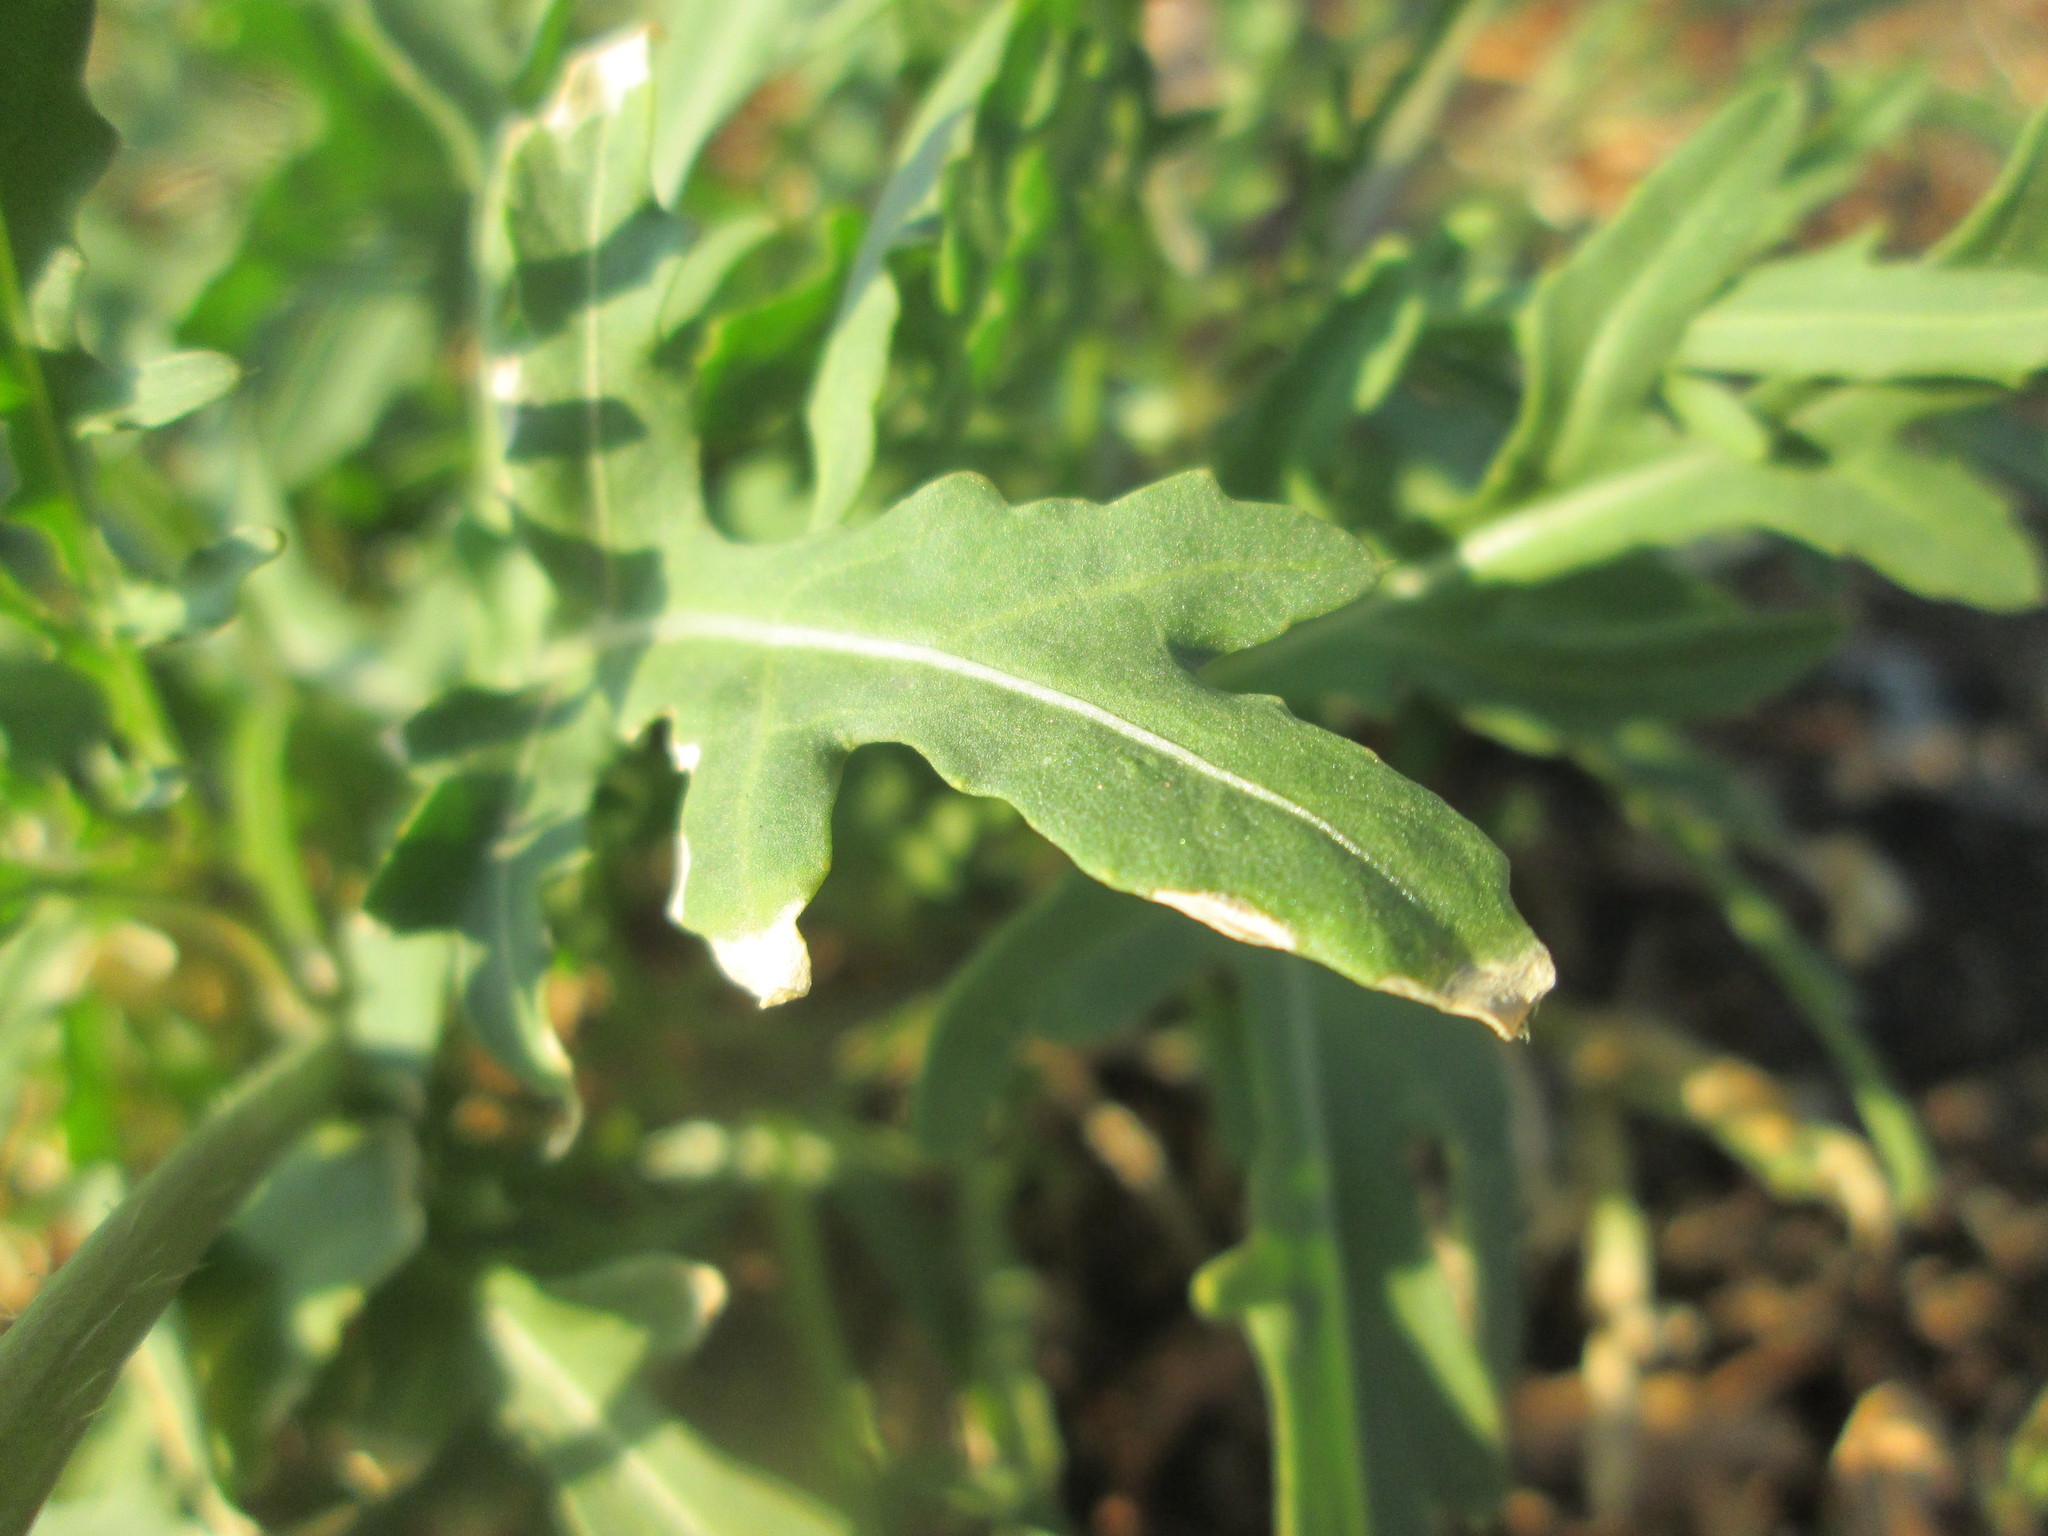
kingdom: Plantae
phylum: Tracheophyta
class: Magnoliopsida
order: Brassicales
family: Brassicaceae
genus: Diplotaxis
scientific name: Diplotaxis tenuifolia
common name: Perennial wall-rocket
